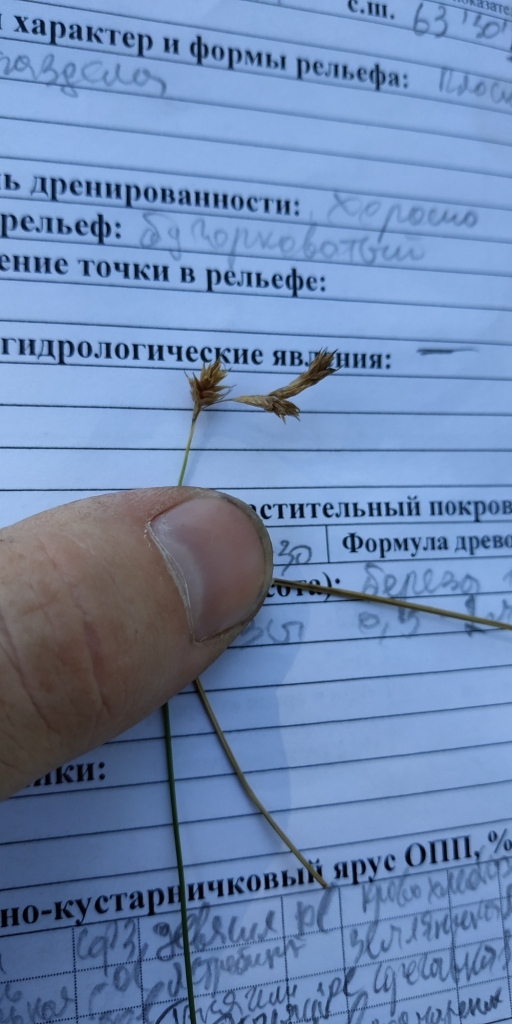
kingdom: Plantae
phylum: Tracheophyta
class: Liliopsida
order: Poales
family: Cyperaceae
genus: Carex
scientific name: Carex praecox
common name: Early sedge
